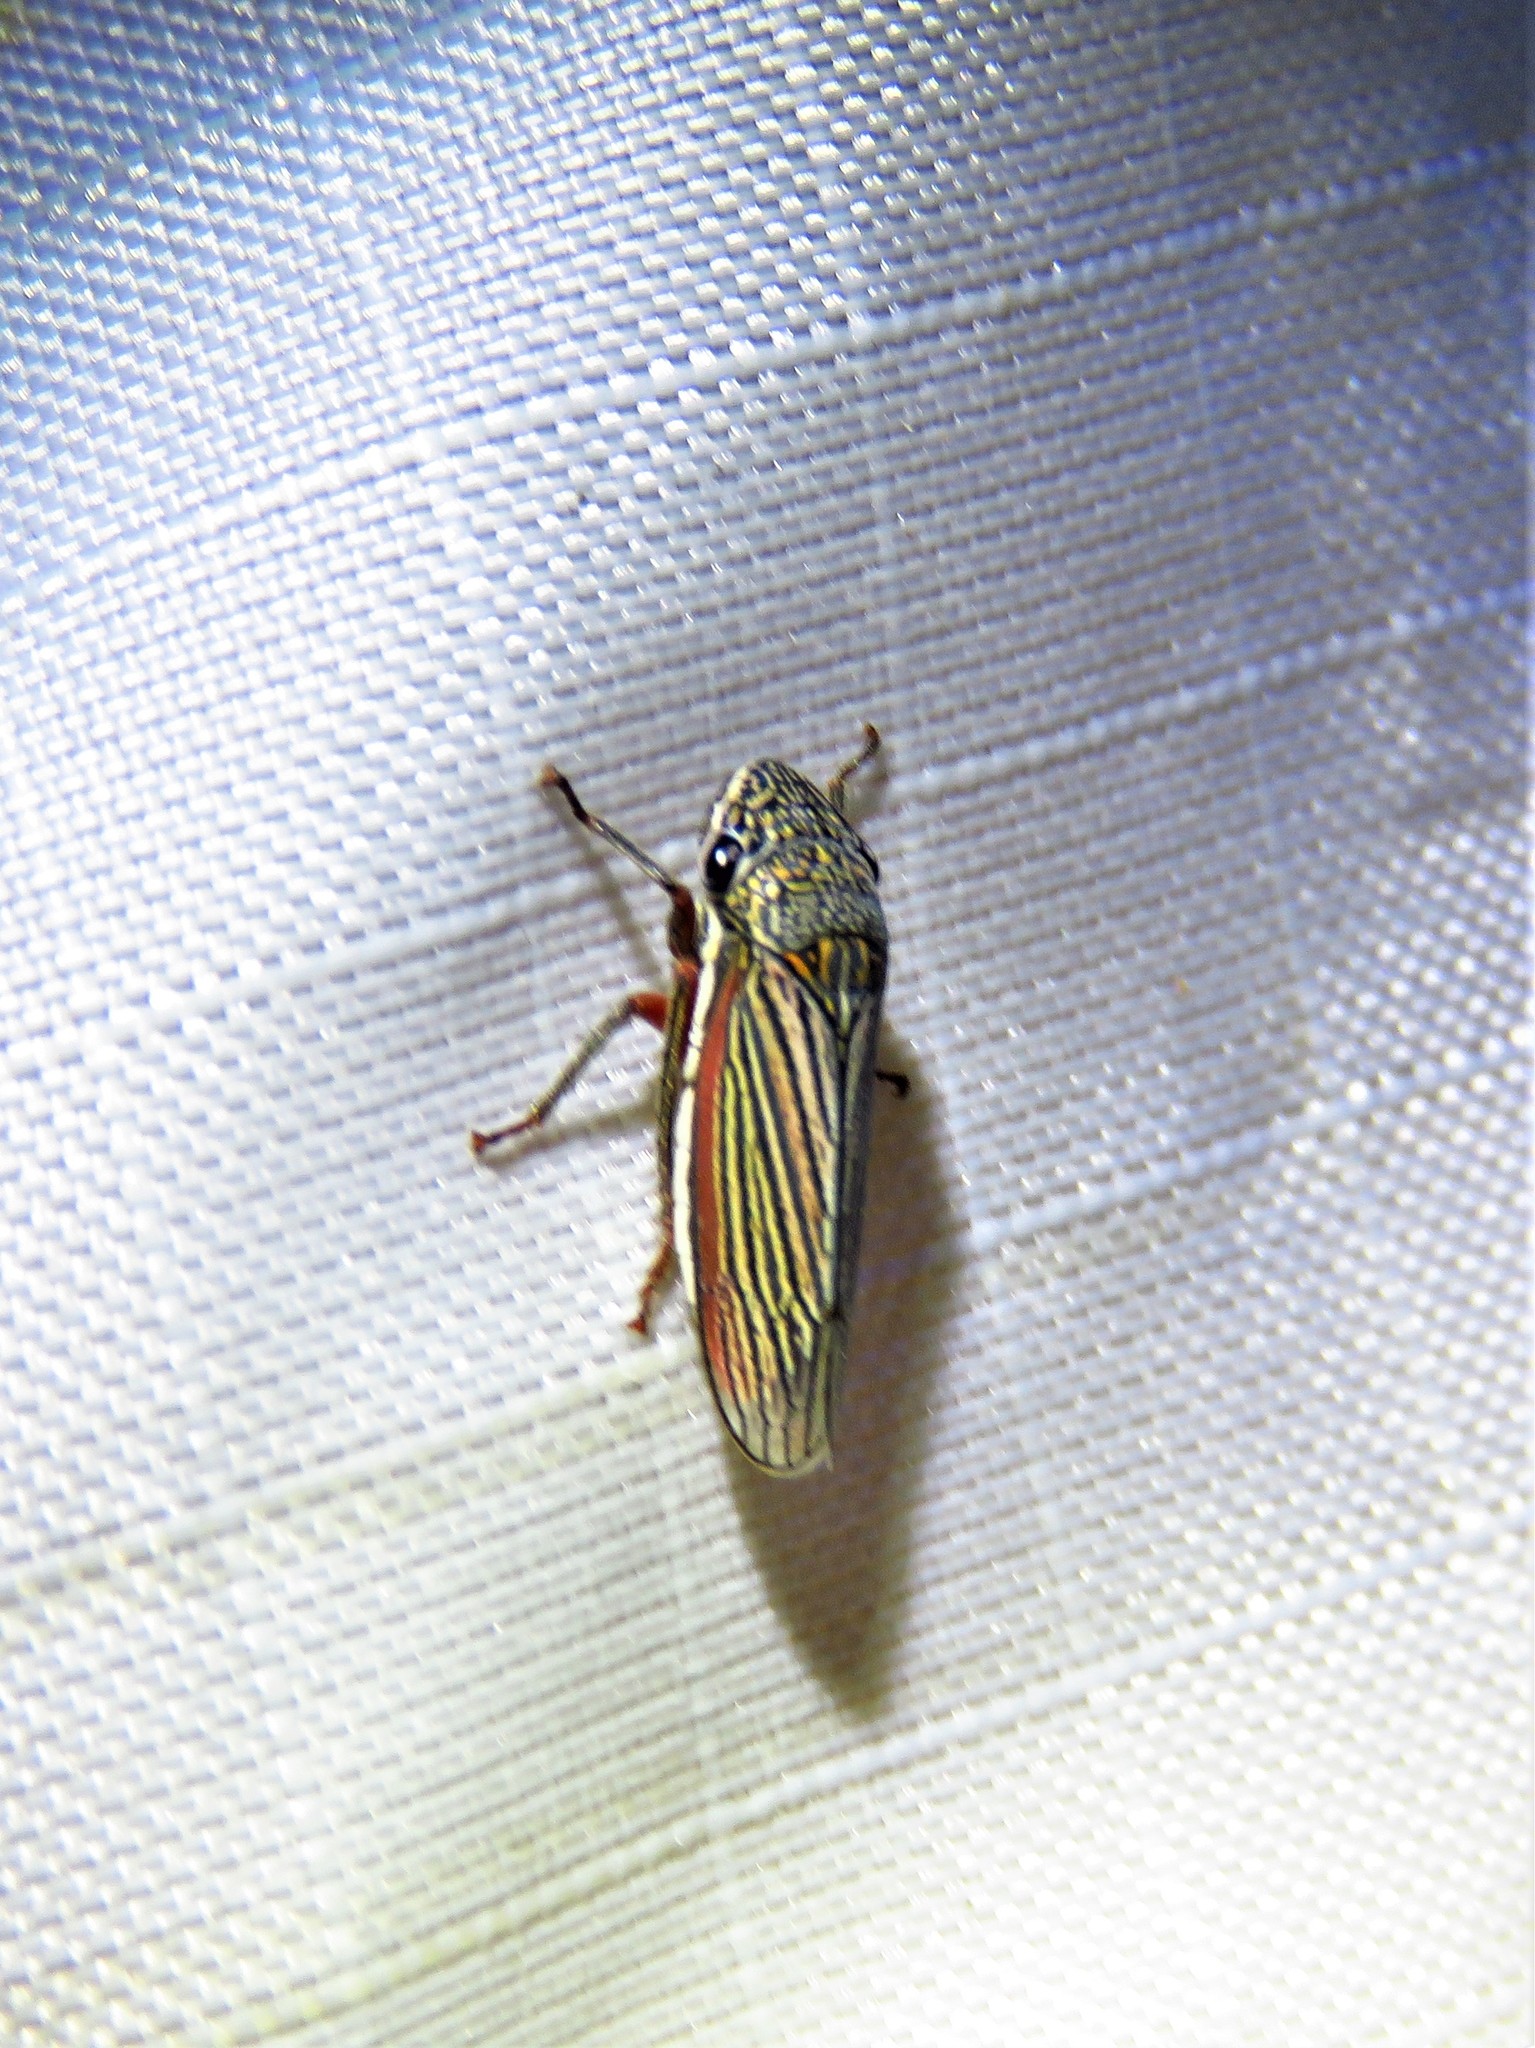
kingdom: Animalia
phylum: Arthropoda
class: Insecta
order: Hemiptera
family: Cicadellidae
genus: Cuerna
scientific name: Cuerna costalis
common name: Lateral-lined sharpshooter
